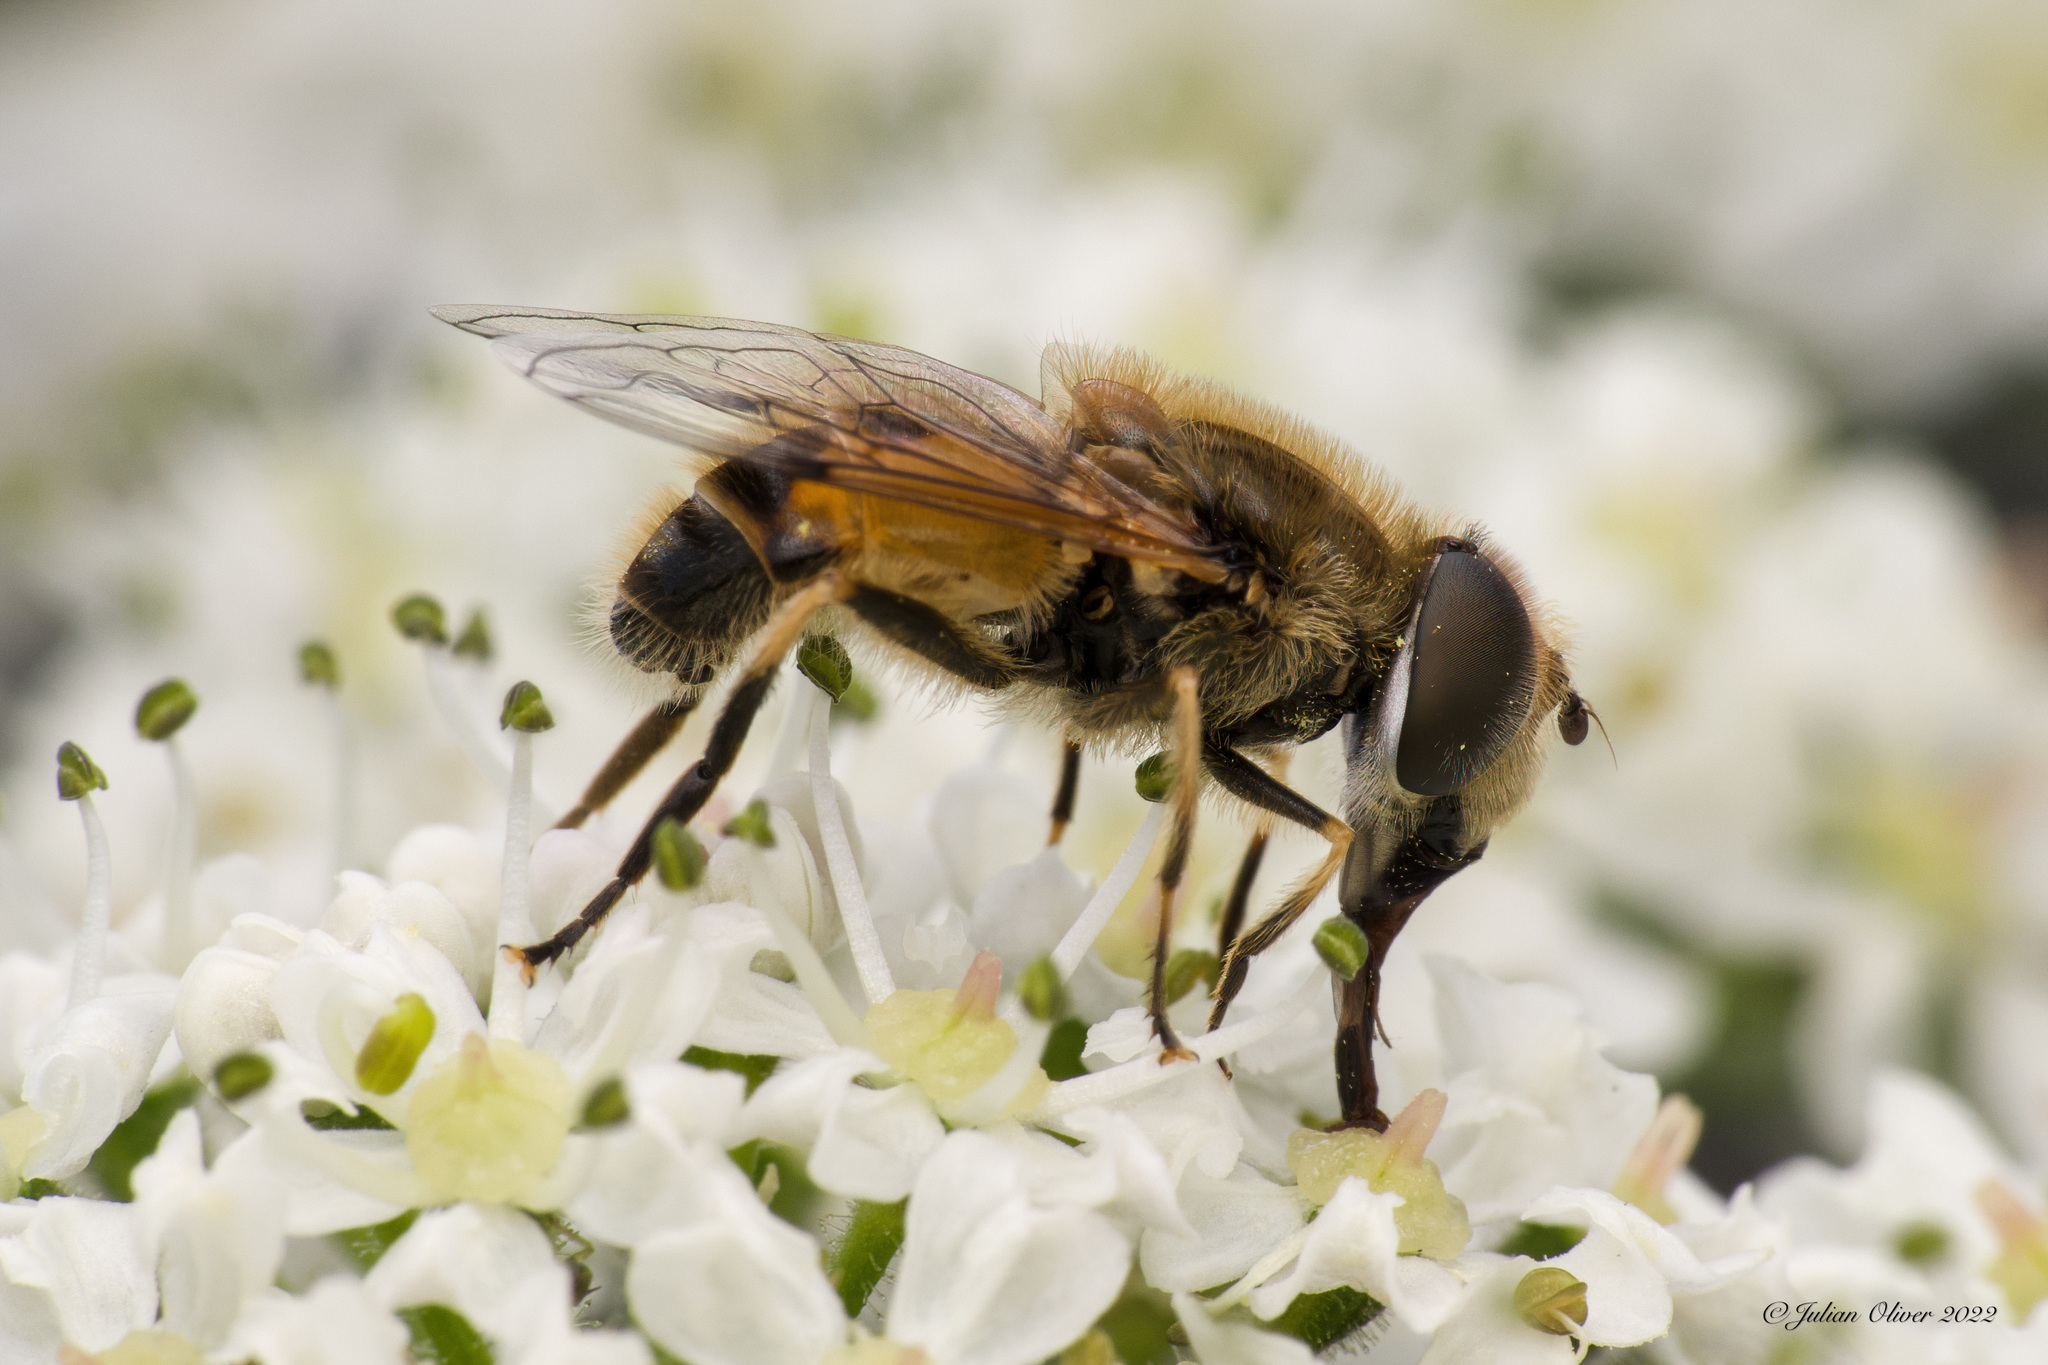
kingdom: Animalia
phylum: Arthropoda
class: Insecta
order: Diptera
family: Syrphidae
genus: Eristalis
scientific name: Eristalis arbustorum
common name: Hover fly
